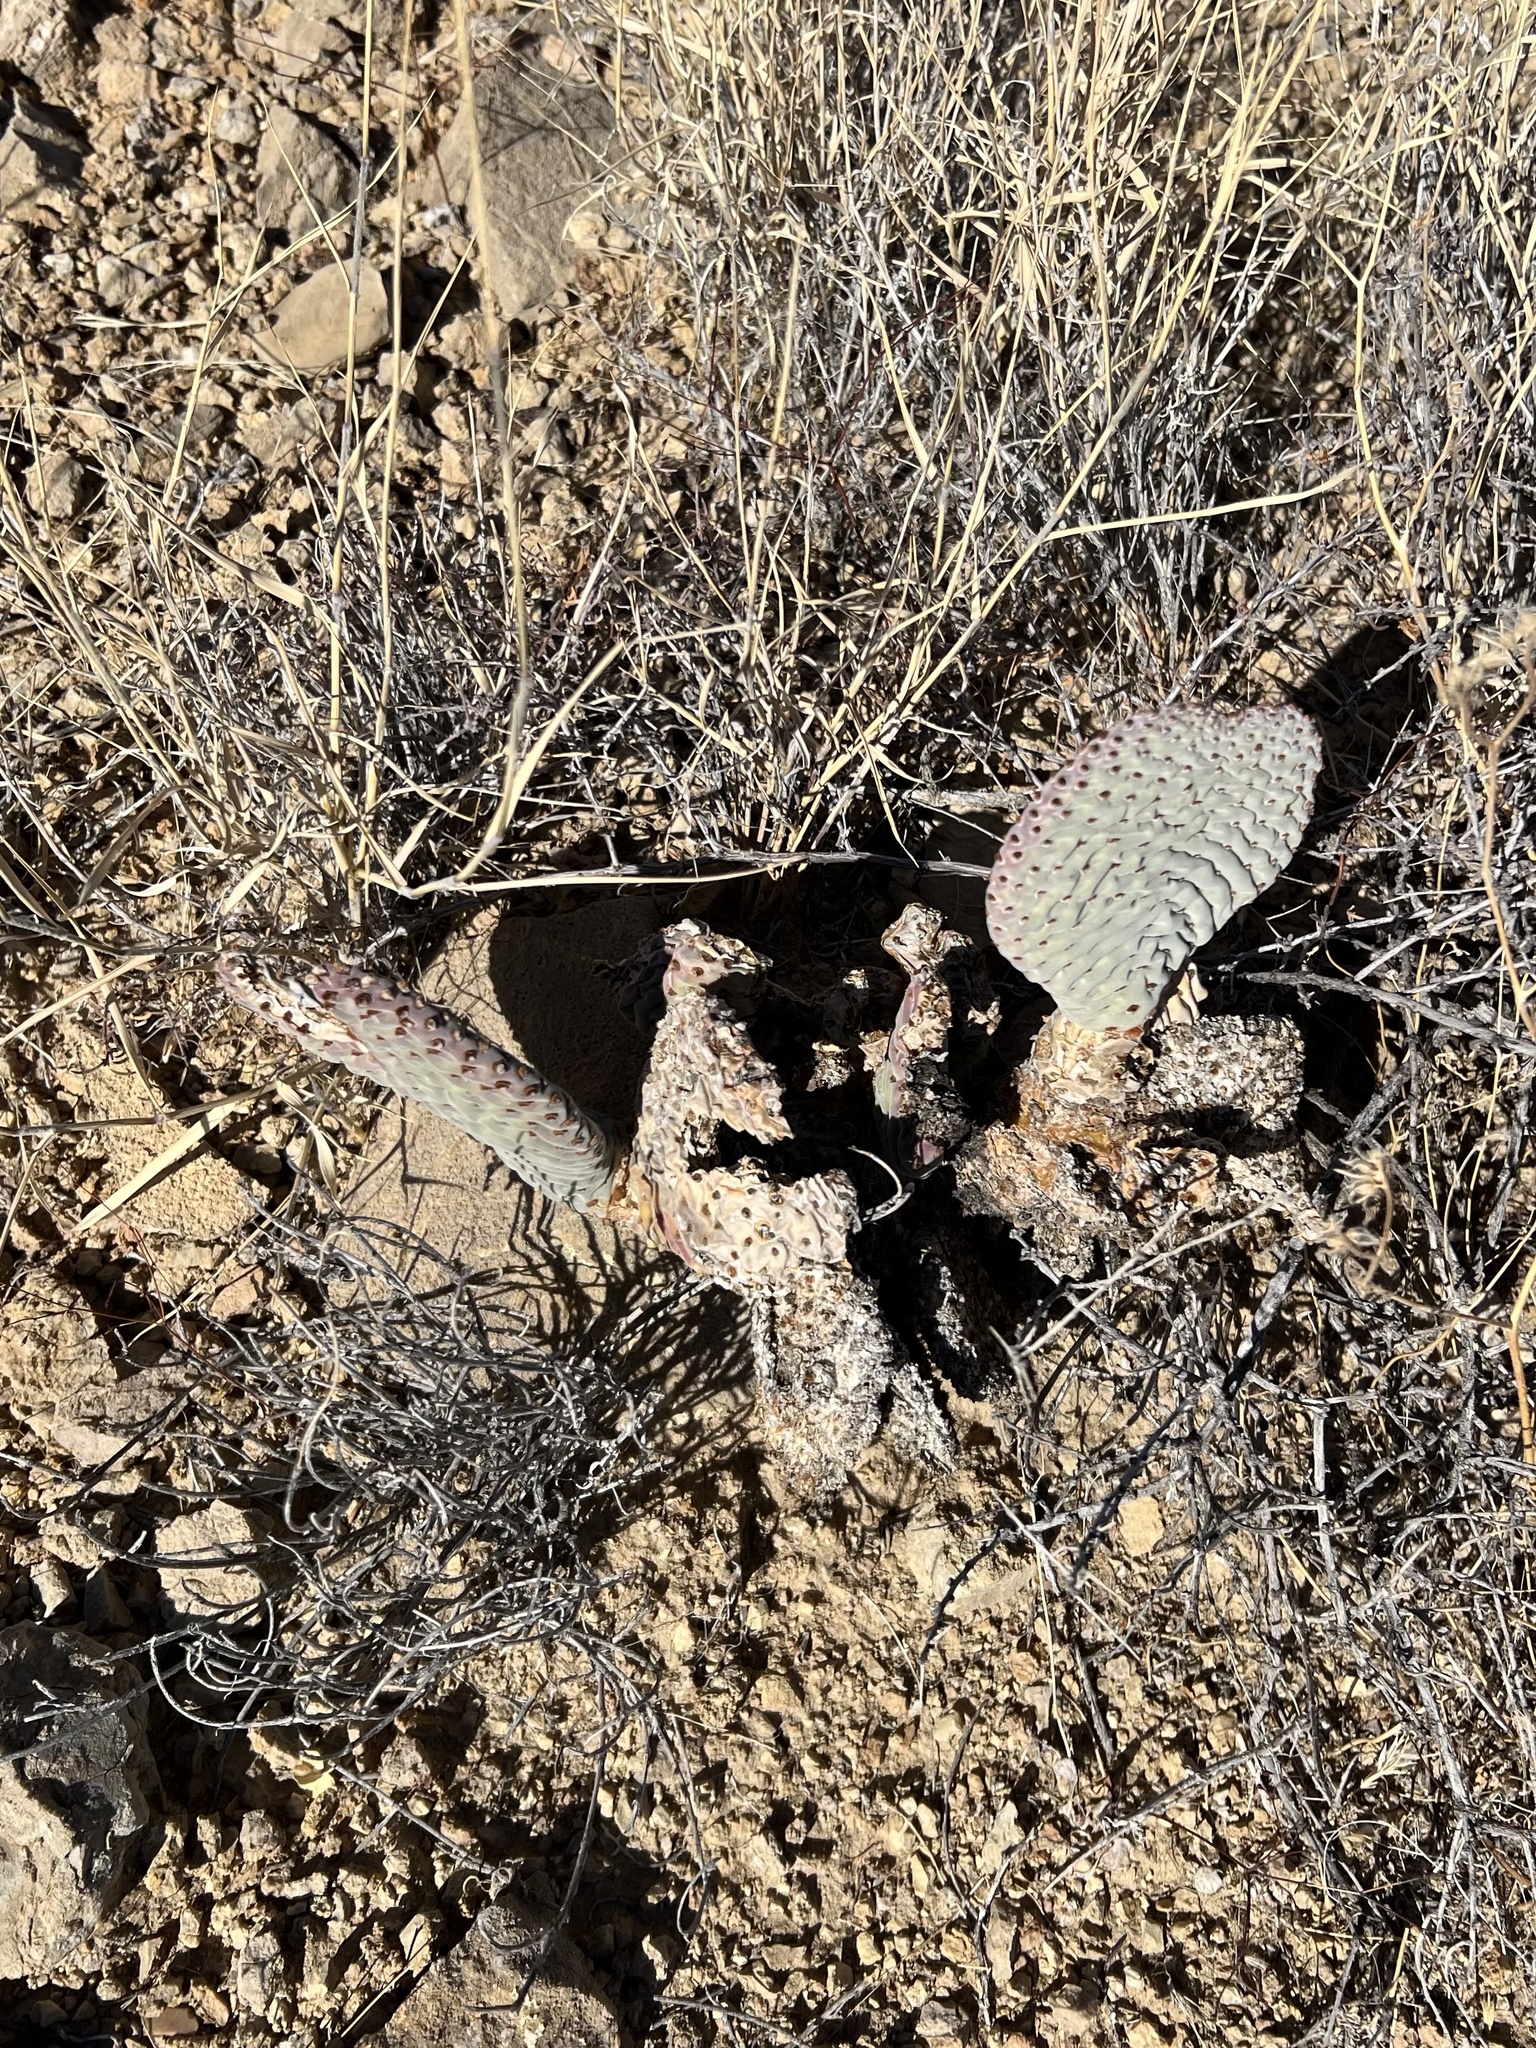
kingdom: Plantae
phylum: Tracheophyta
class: Magnoliopsida
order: Caryophyllales
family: Cactaceae
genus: Opuntia
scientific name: Opuntia basilaris
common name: Beavertail prickly-pear
